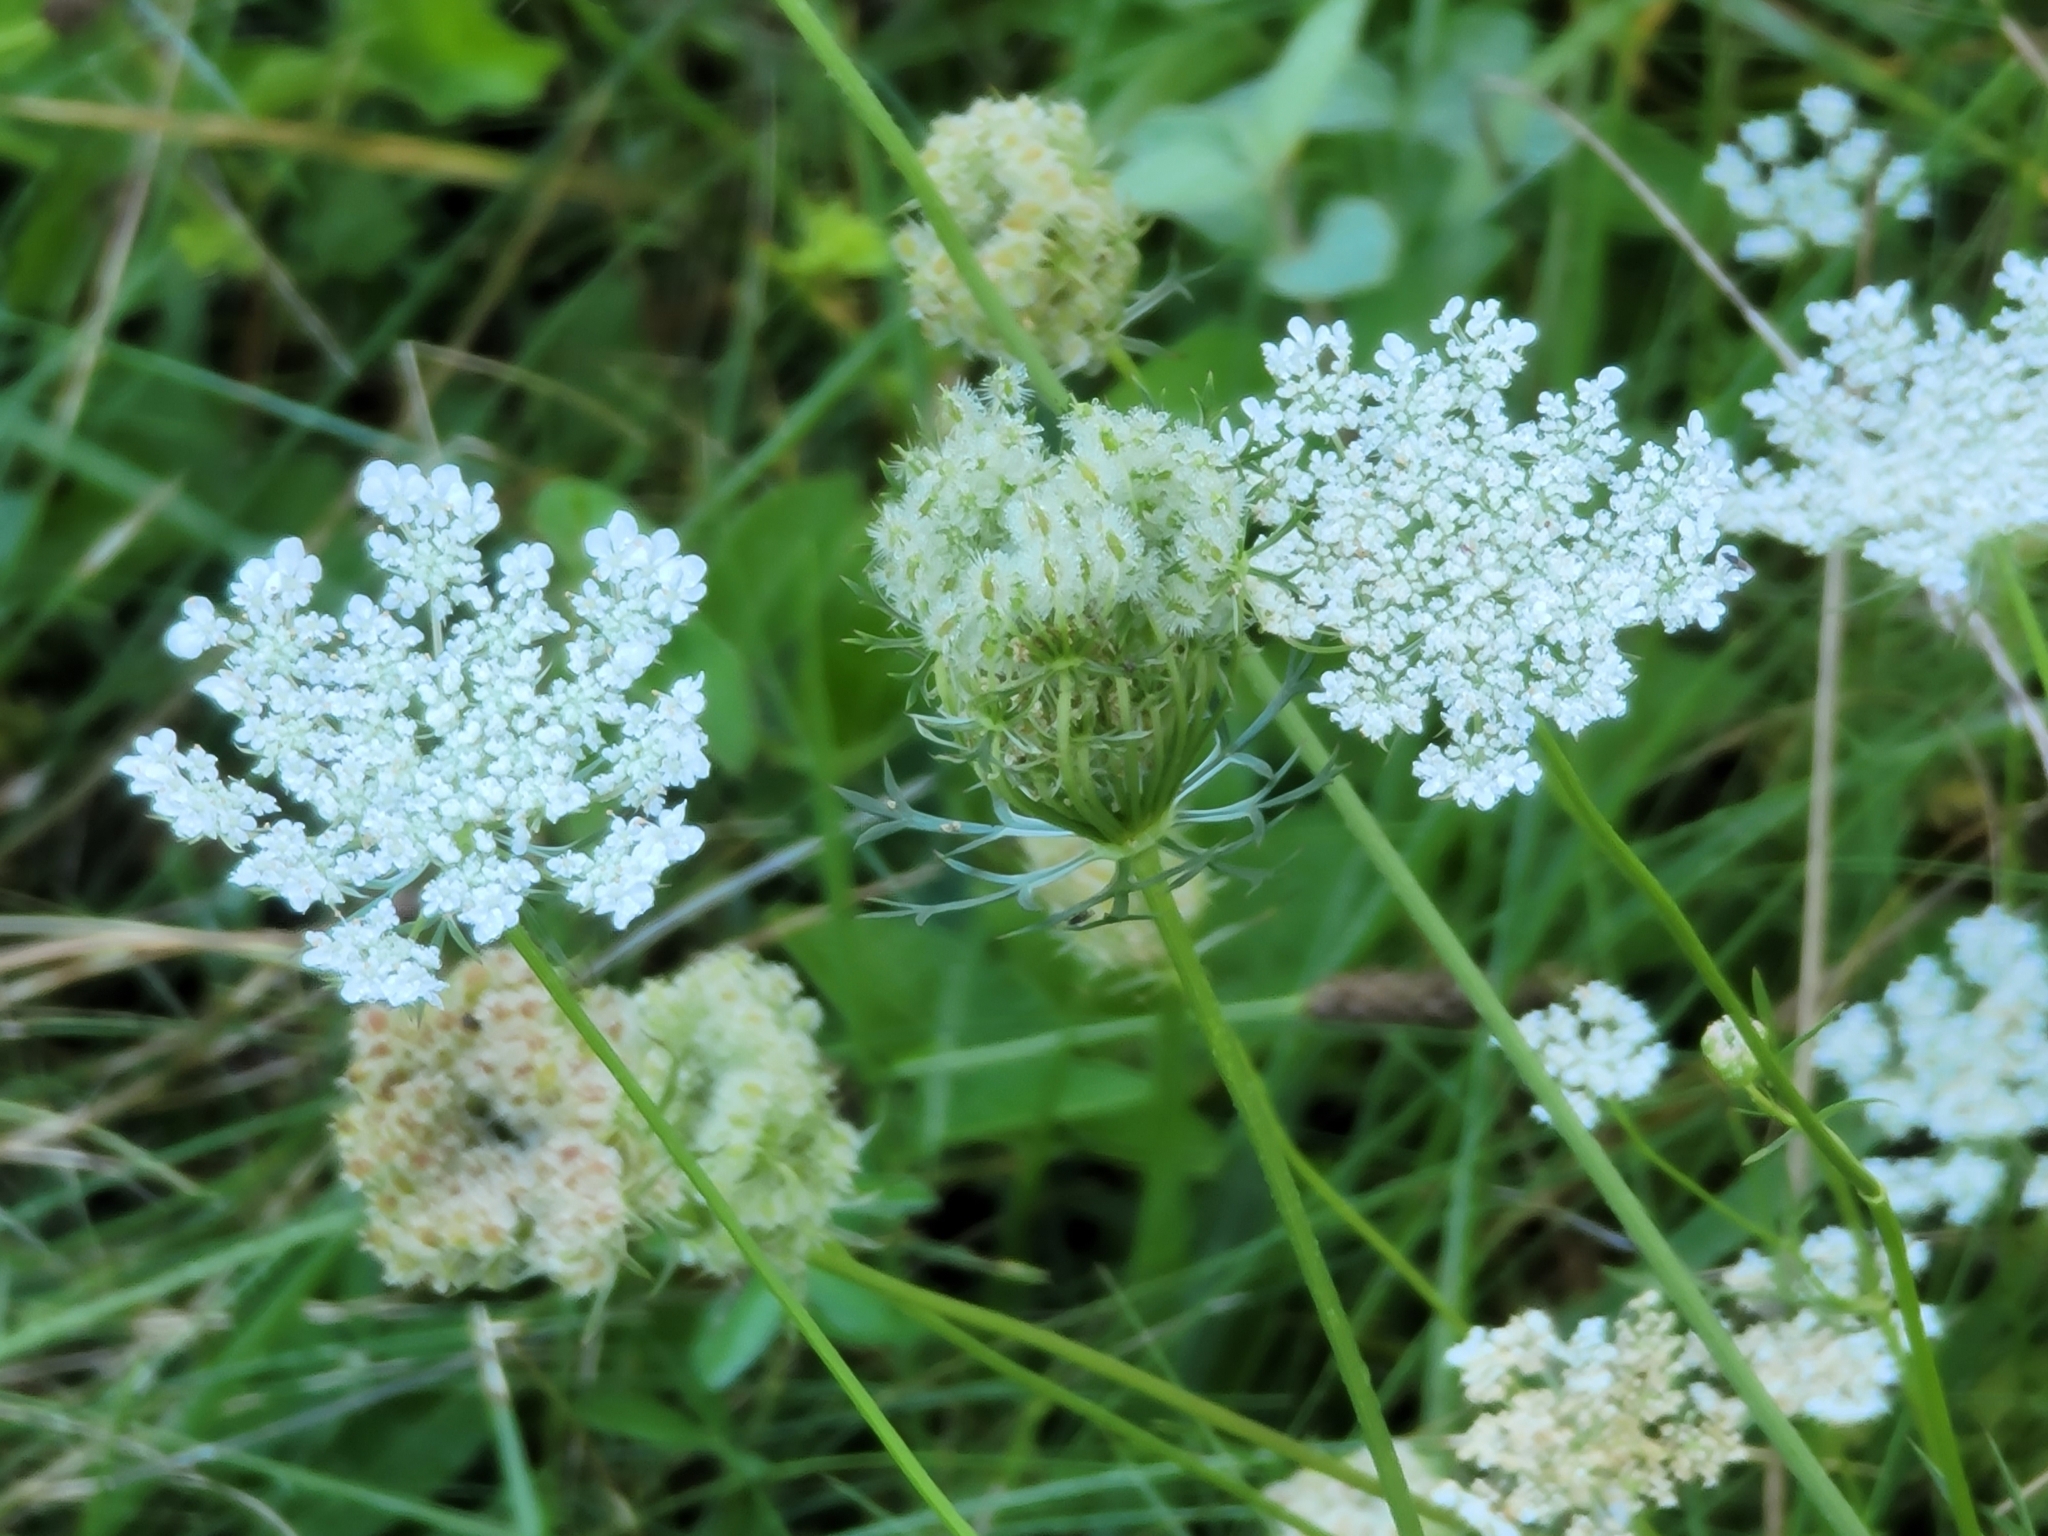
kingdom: Plantae
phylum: Tracheophyta
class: Magnoliopsida
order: Apiales
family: Apiaceae
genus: Daucus
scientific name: Daucus carota
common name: Wild carrot
